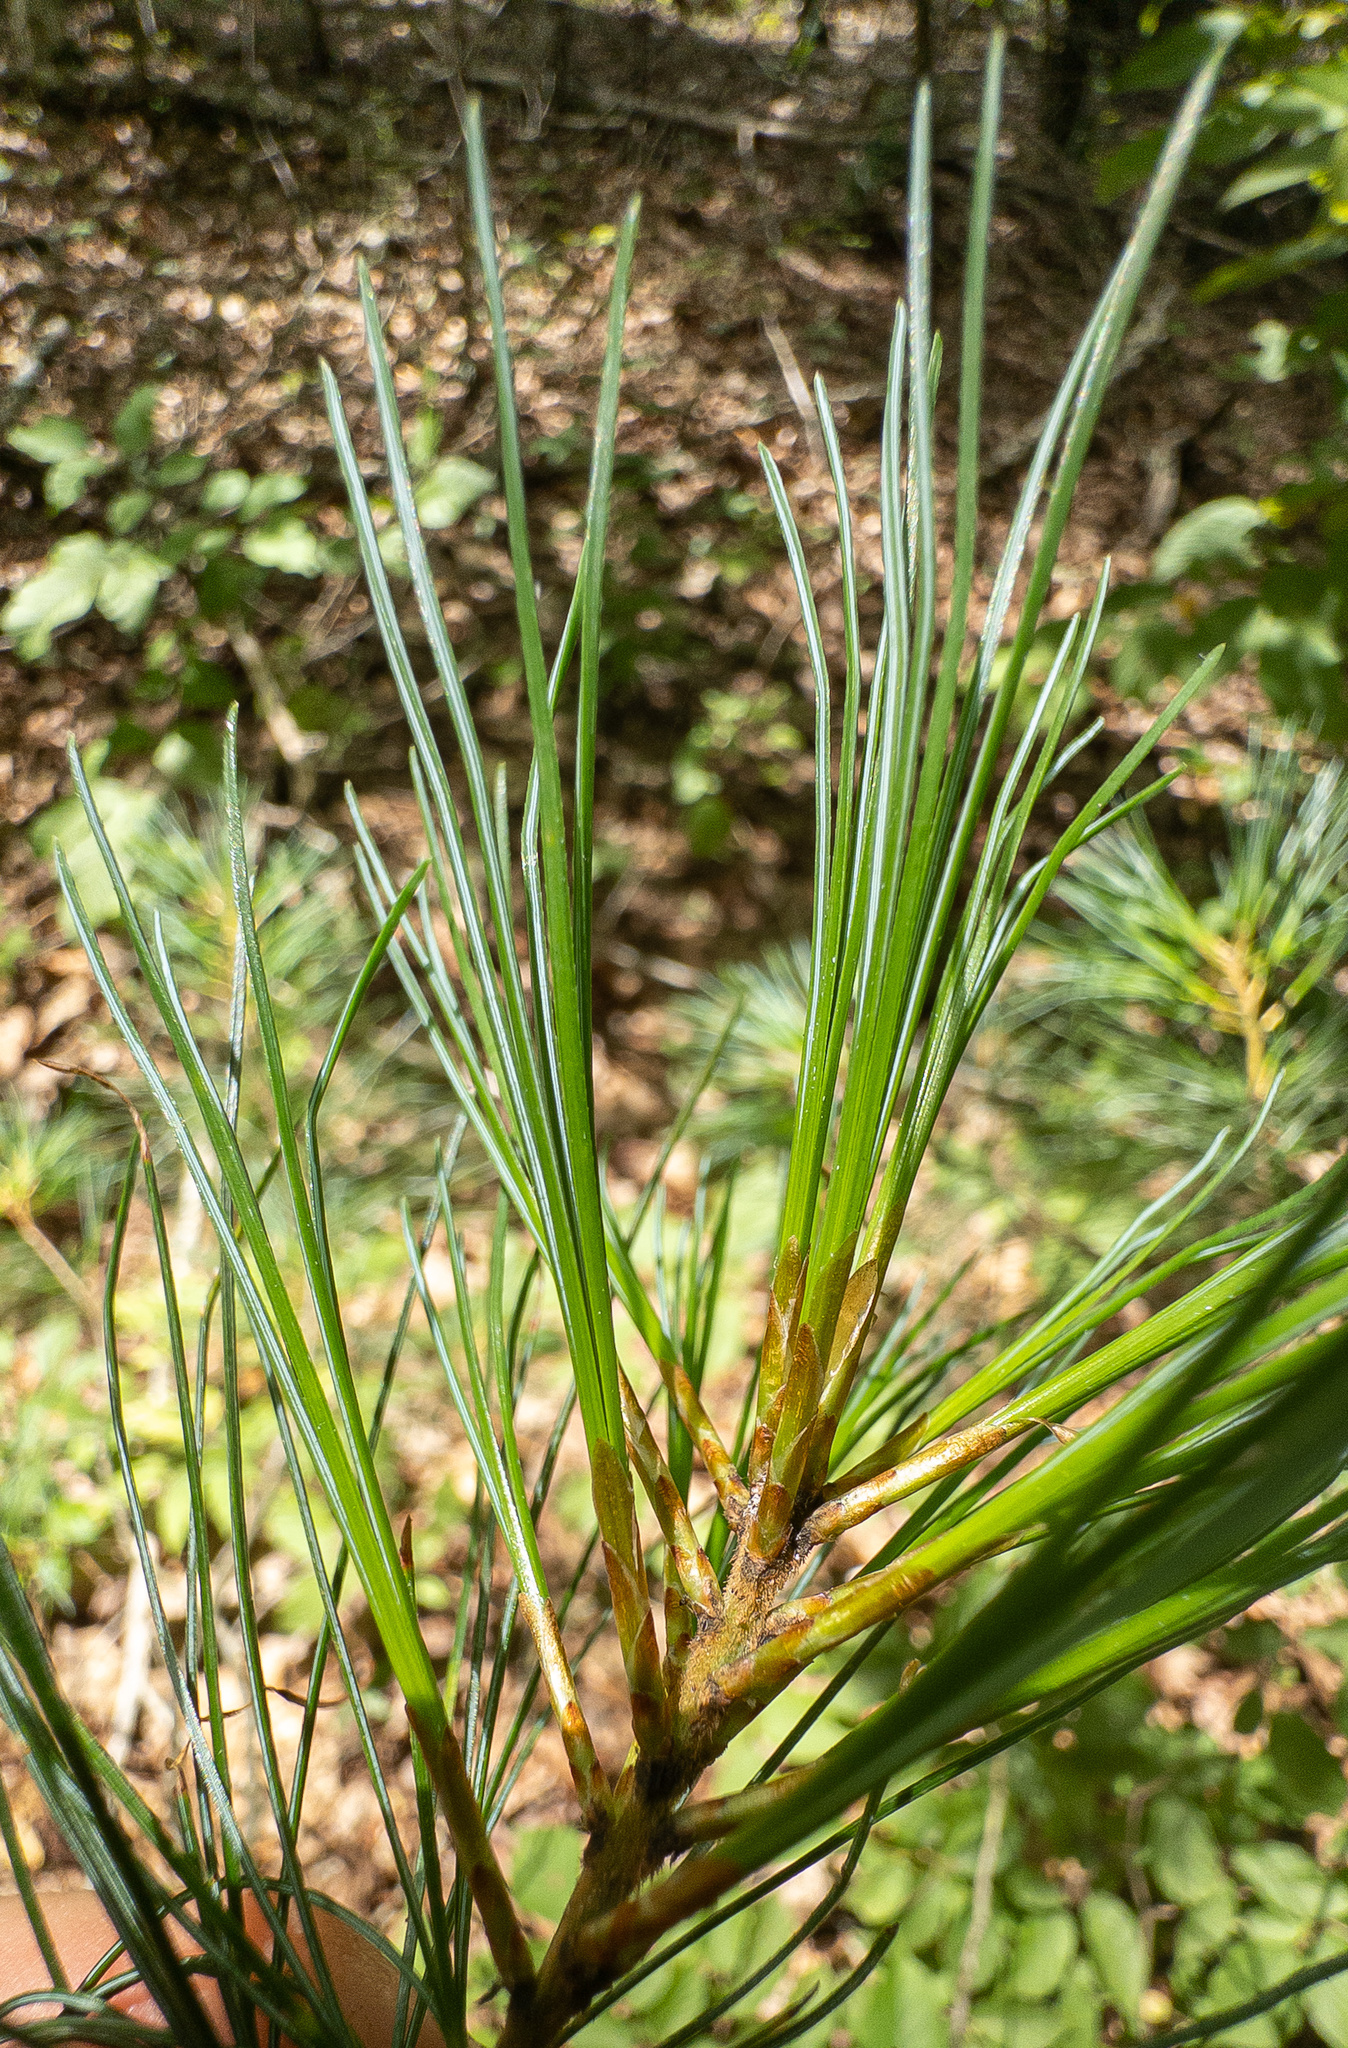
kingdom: Plantae
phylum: Tracheophyta
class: Pinopsida
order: Pinales
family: Pinaceae
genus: Pinus
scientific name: Pinus strobus
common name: Weymouth pine
